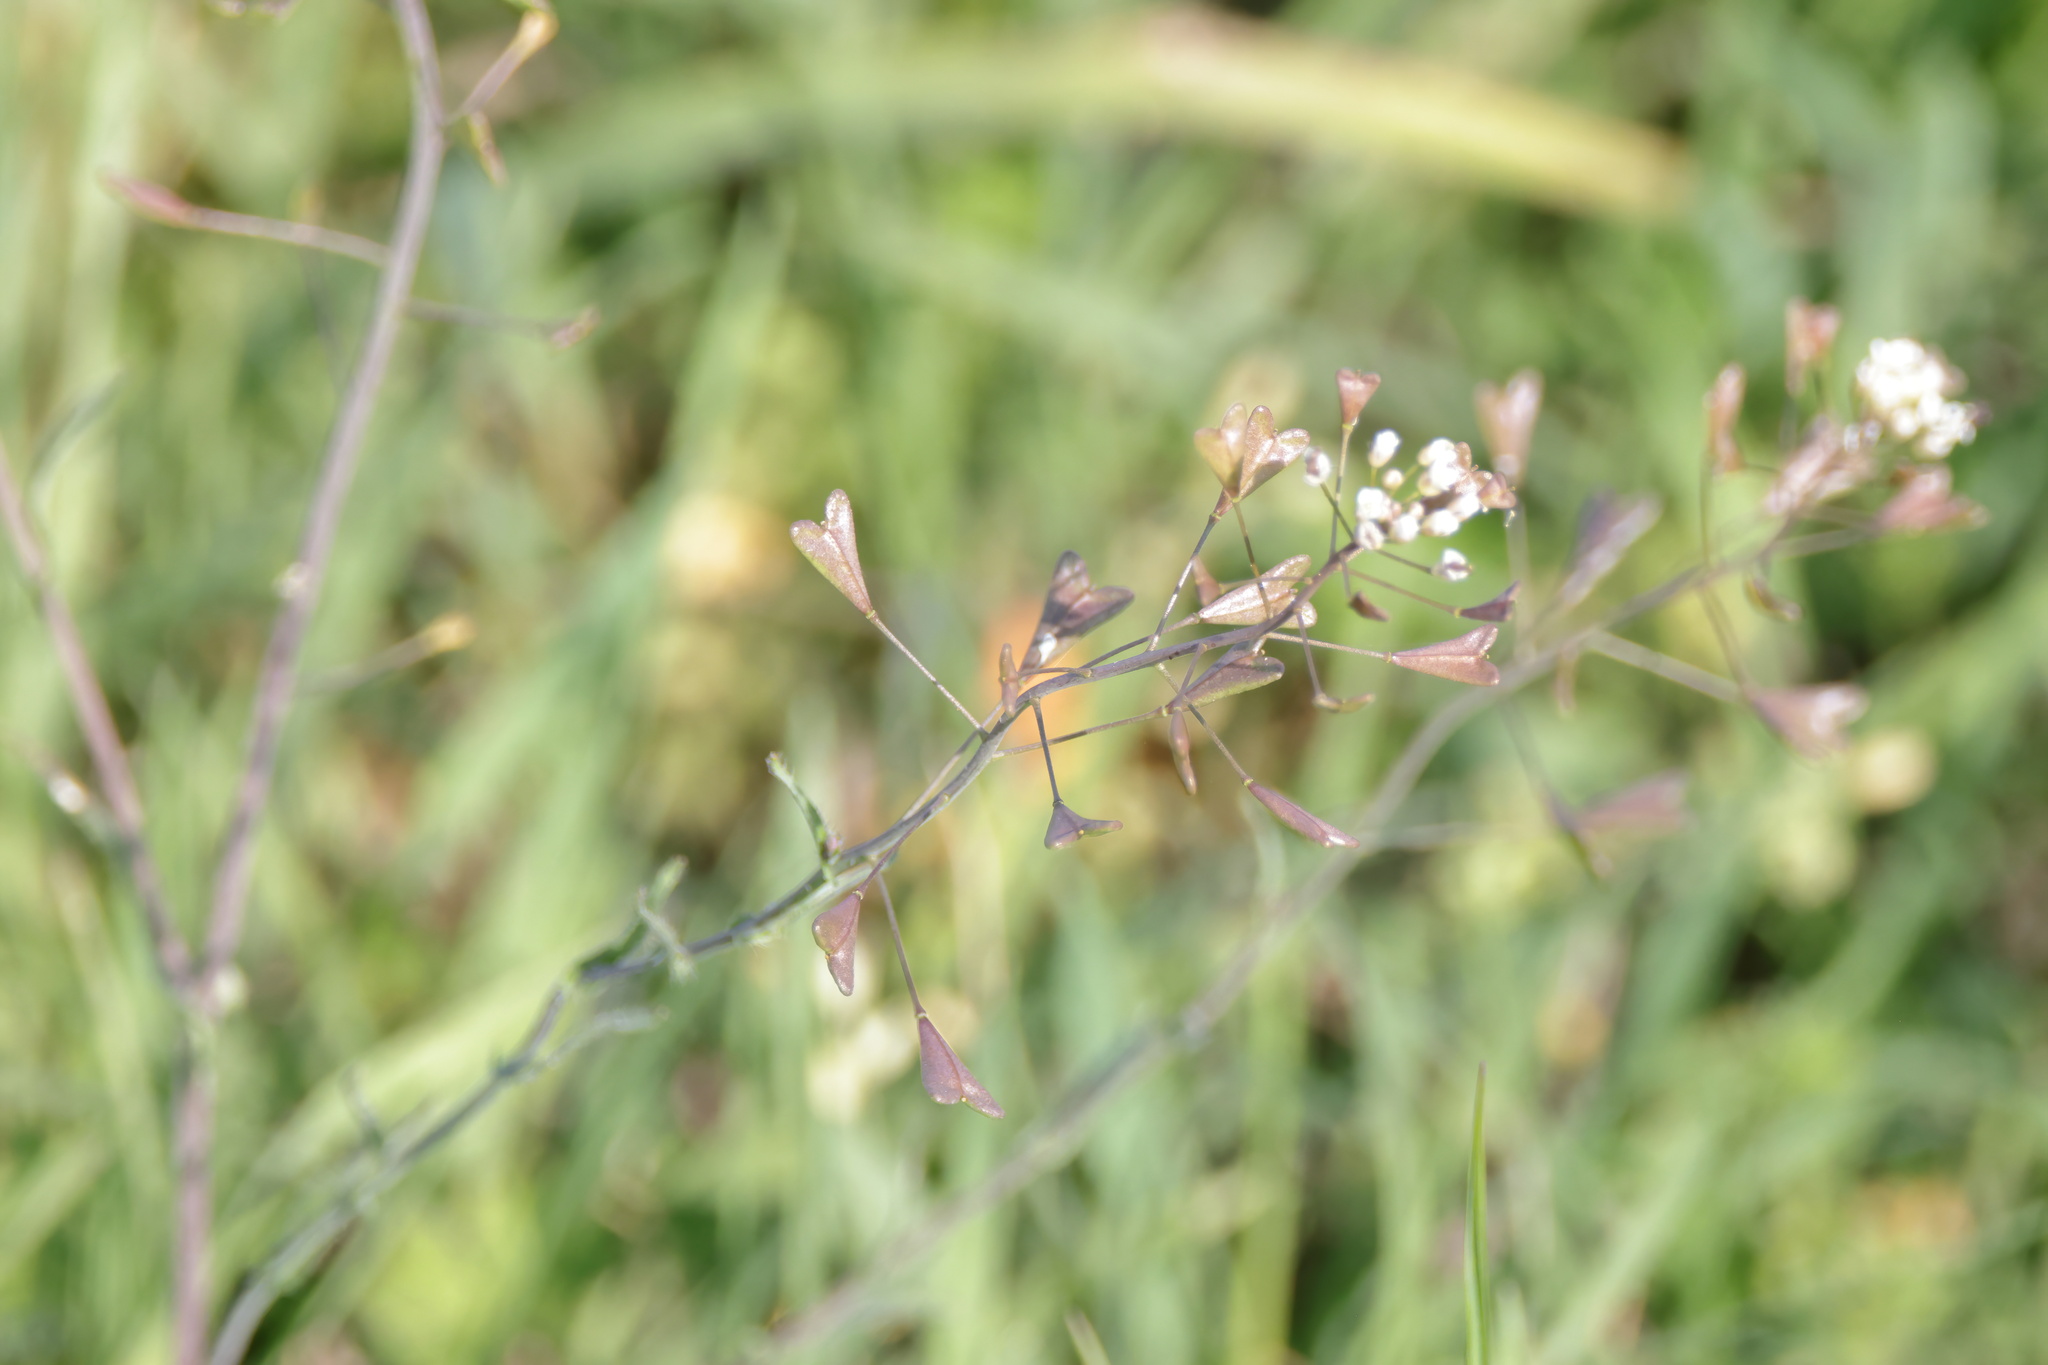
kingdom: Plantae
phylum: Tracheophyta
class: Magnoliopsida
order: Brassicales
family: Brassicaceae
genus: Capsella
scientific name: Capsella bursa-pastoris
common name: Shepherd's purse
